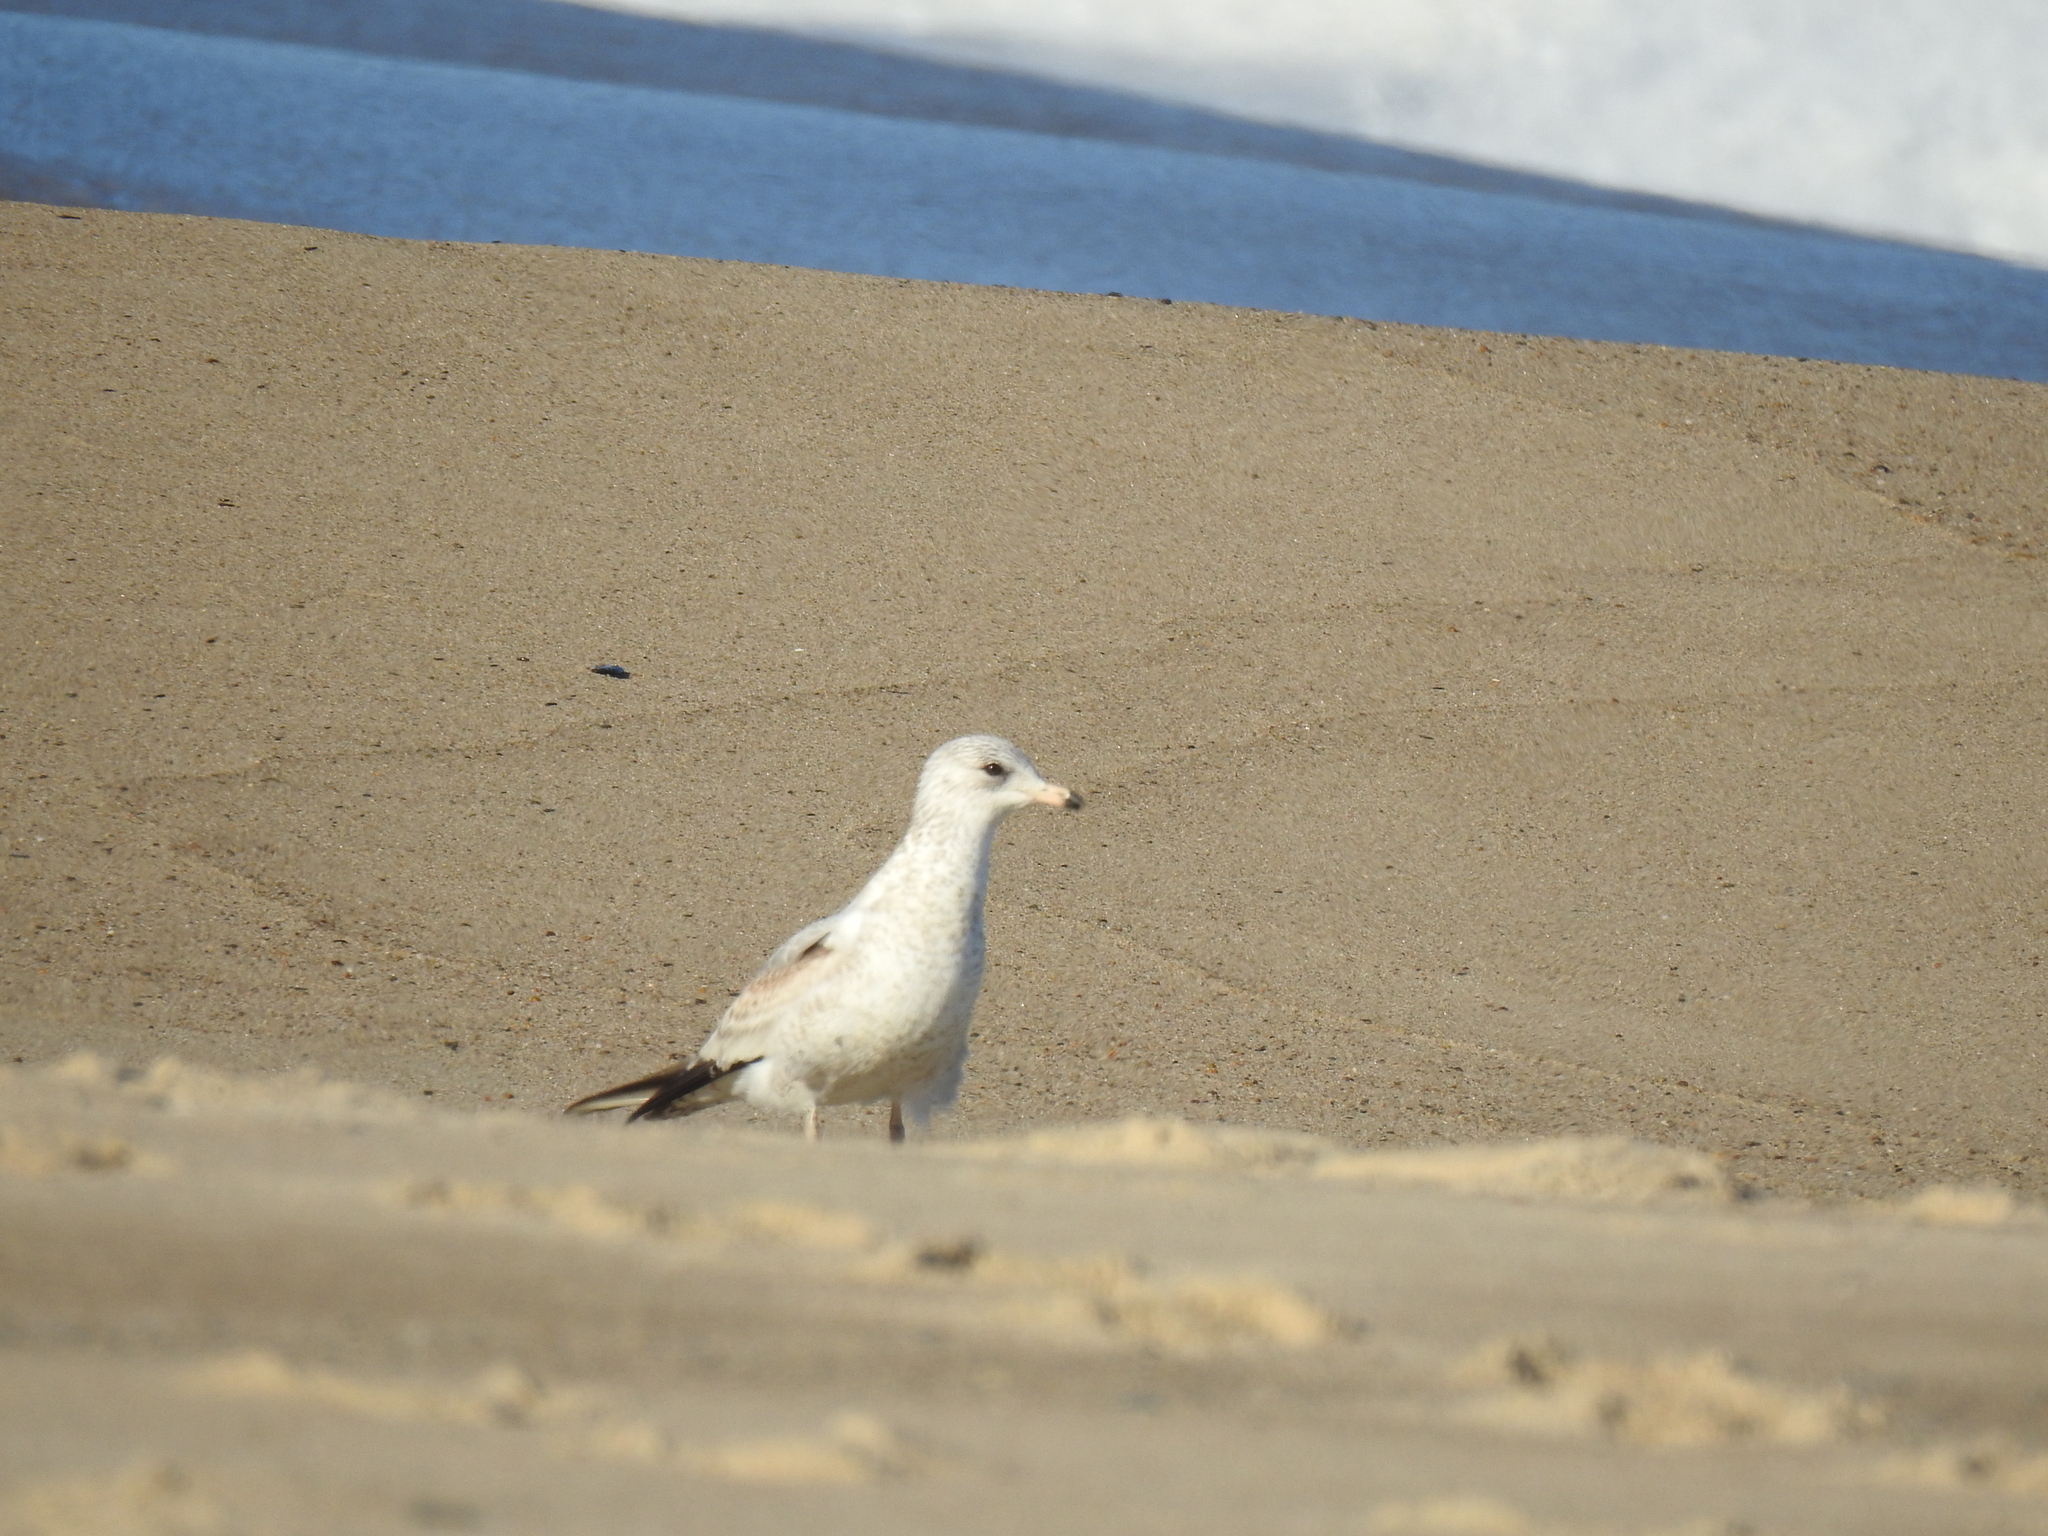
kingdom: Animalia
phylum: Chordata
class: Aves
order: Charadriiformes
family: Laridae
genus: Larus
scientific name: Larus delawarensis
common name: Ring-billed gull
